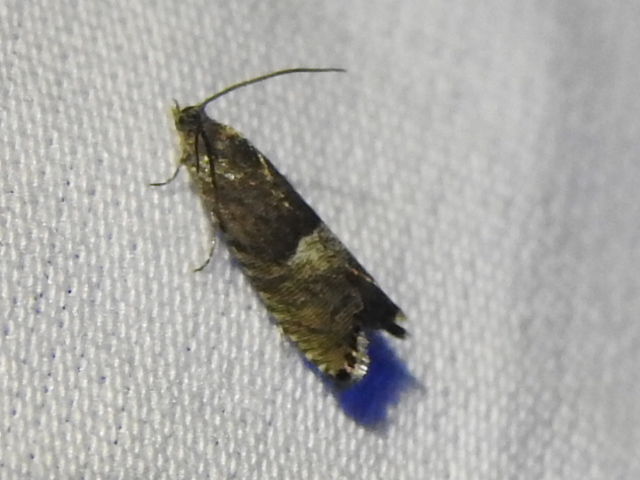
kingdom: Animalia
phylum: Arthropoda
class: Insecta
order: Lepidoptera
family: Tortricidae
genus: Sereda
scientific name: Sereda tautana
